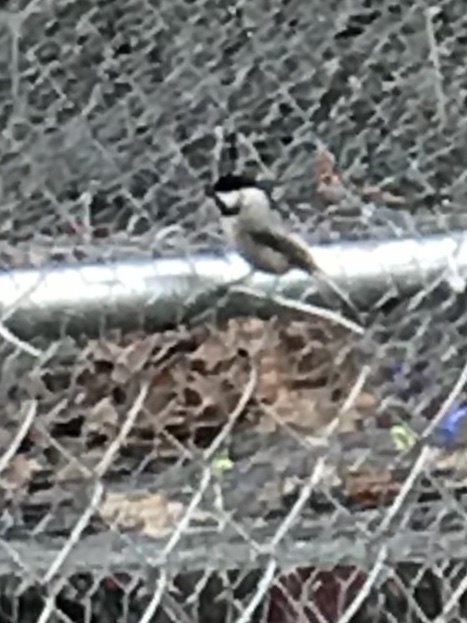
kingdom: Animalia
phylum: Chordata
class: Aves
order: Passeriformes
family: Paridae
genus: Poecile
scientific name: Poecile carolinensis
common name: Carolina chickadee
